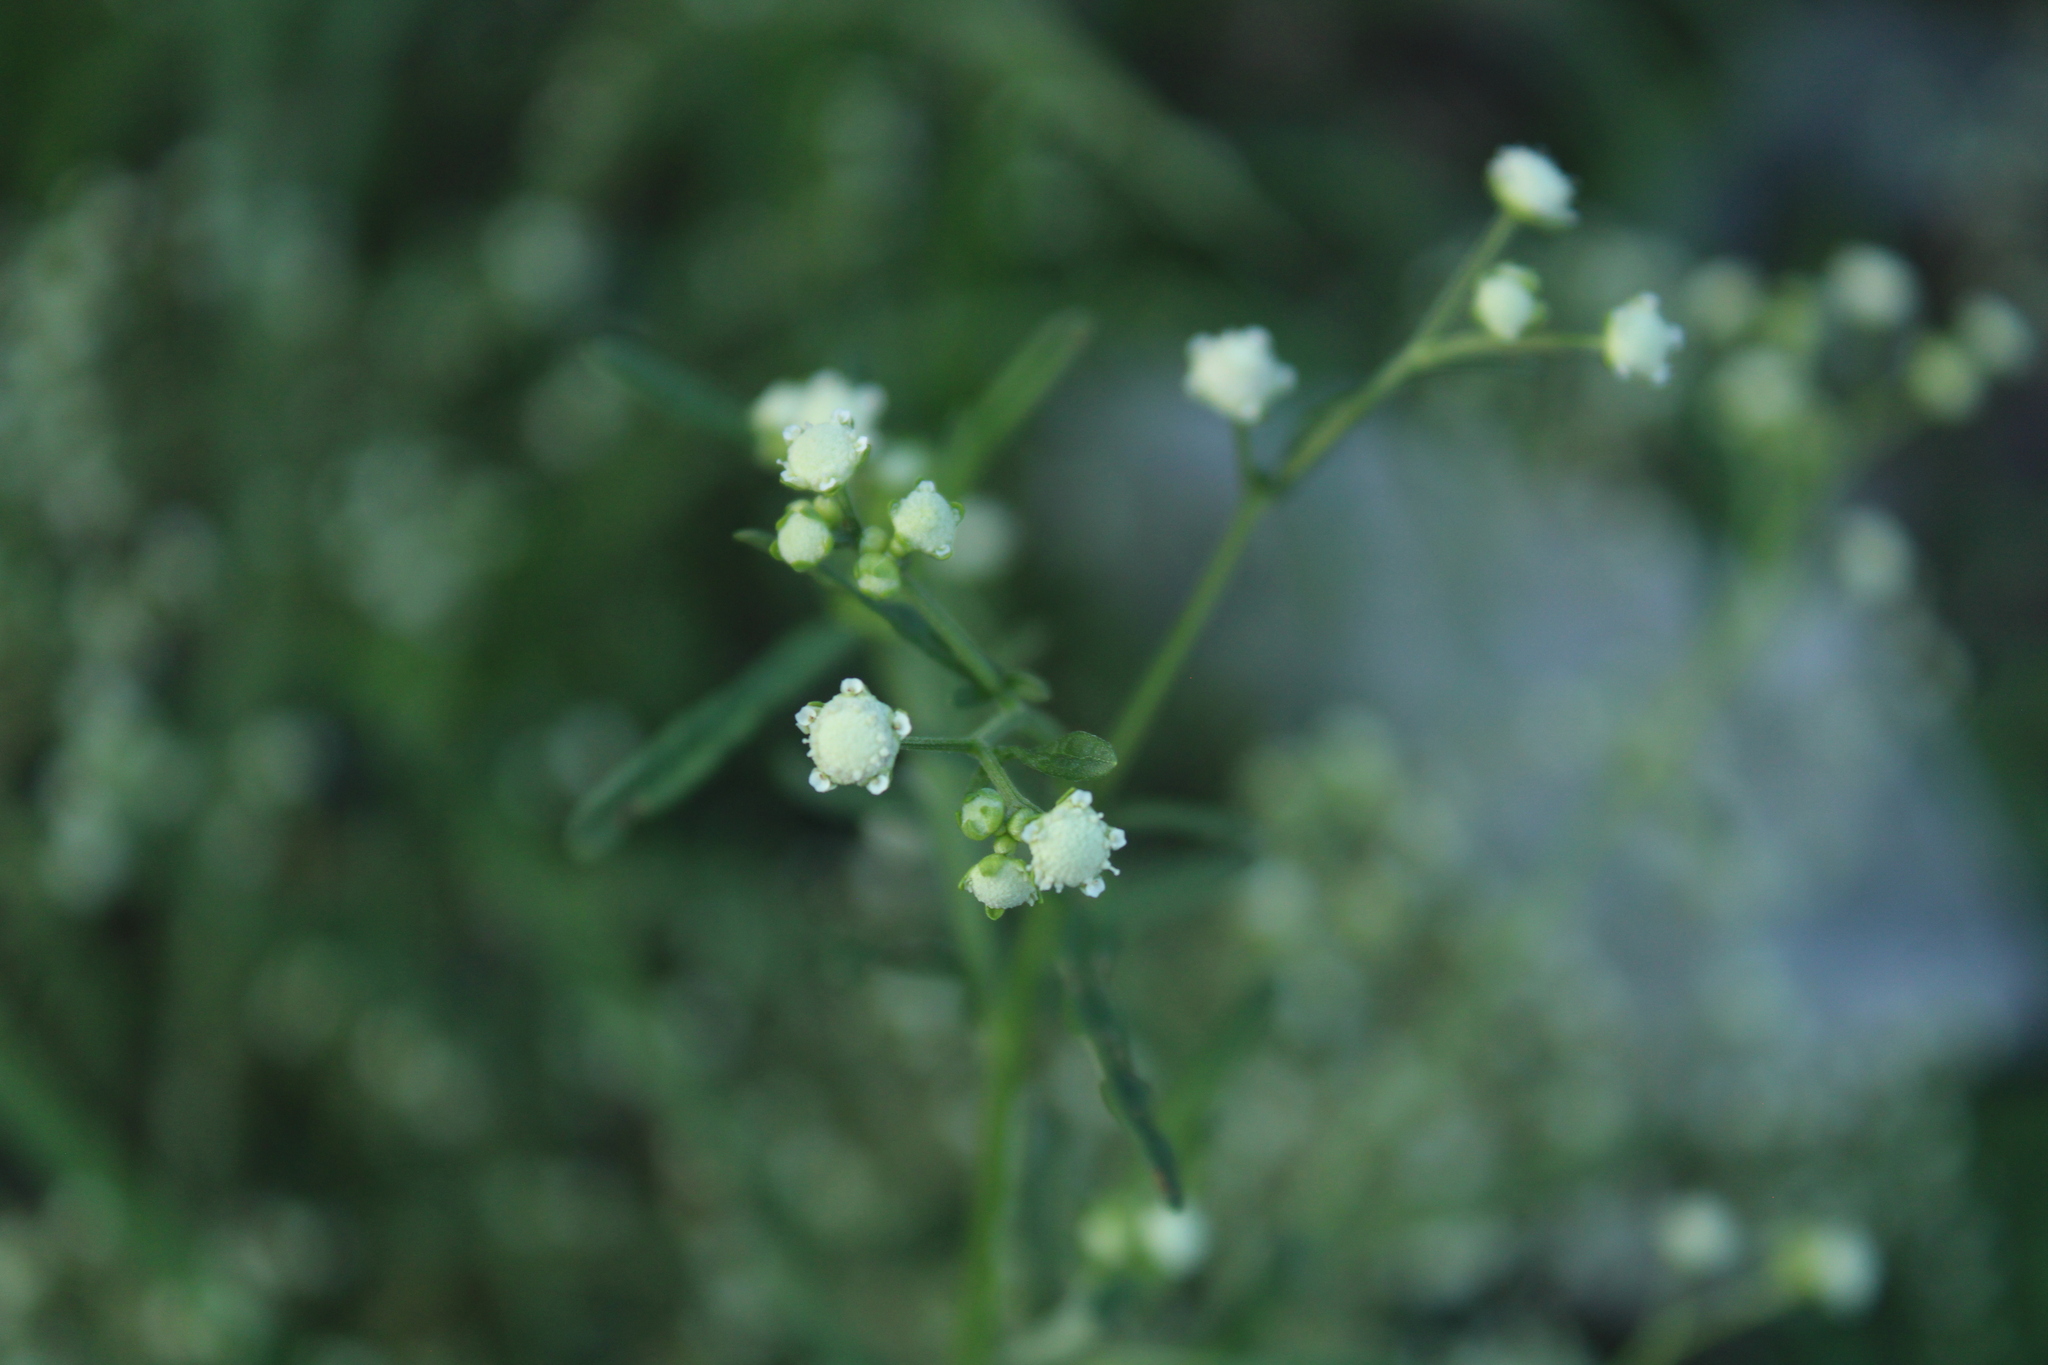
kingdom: Plantae
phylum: Tracheophyta
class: Magnoliopsida
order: Asterales
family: Asteraceae
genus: Parthenium
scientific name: Parthenium hysterophorus
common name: Santa maria feverfew
